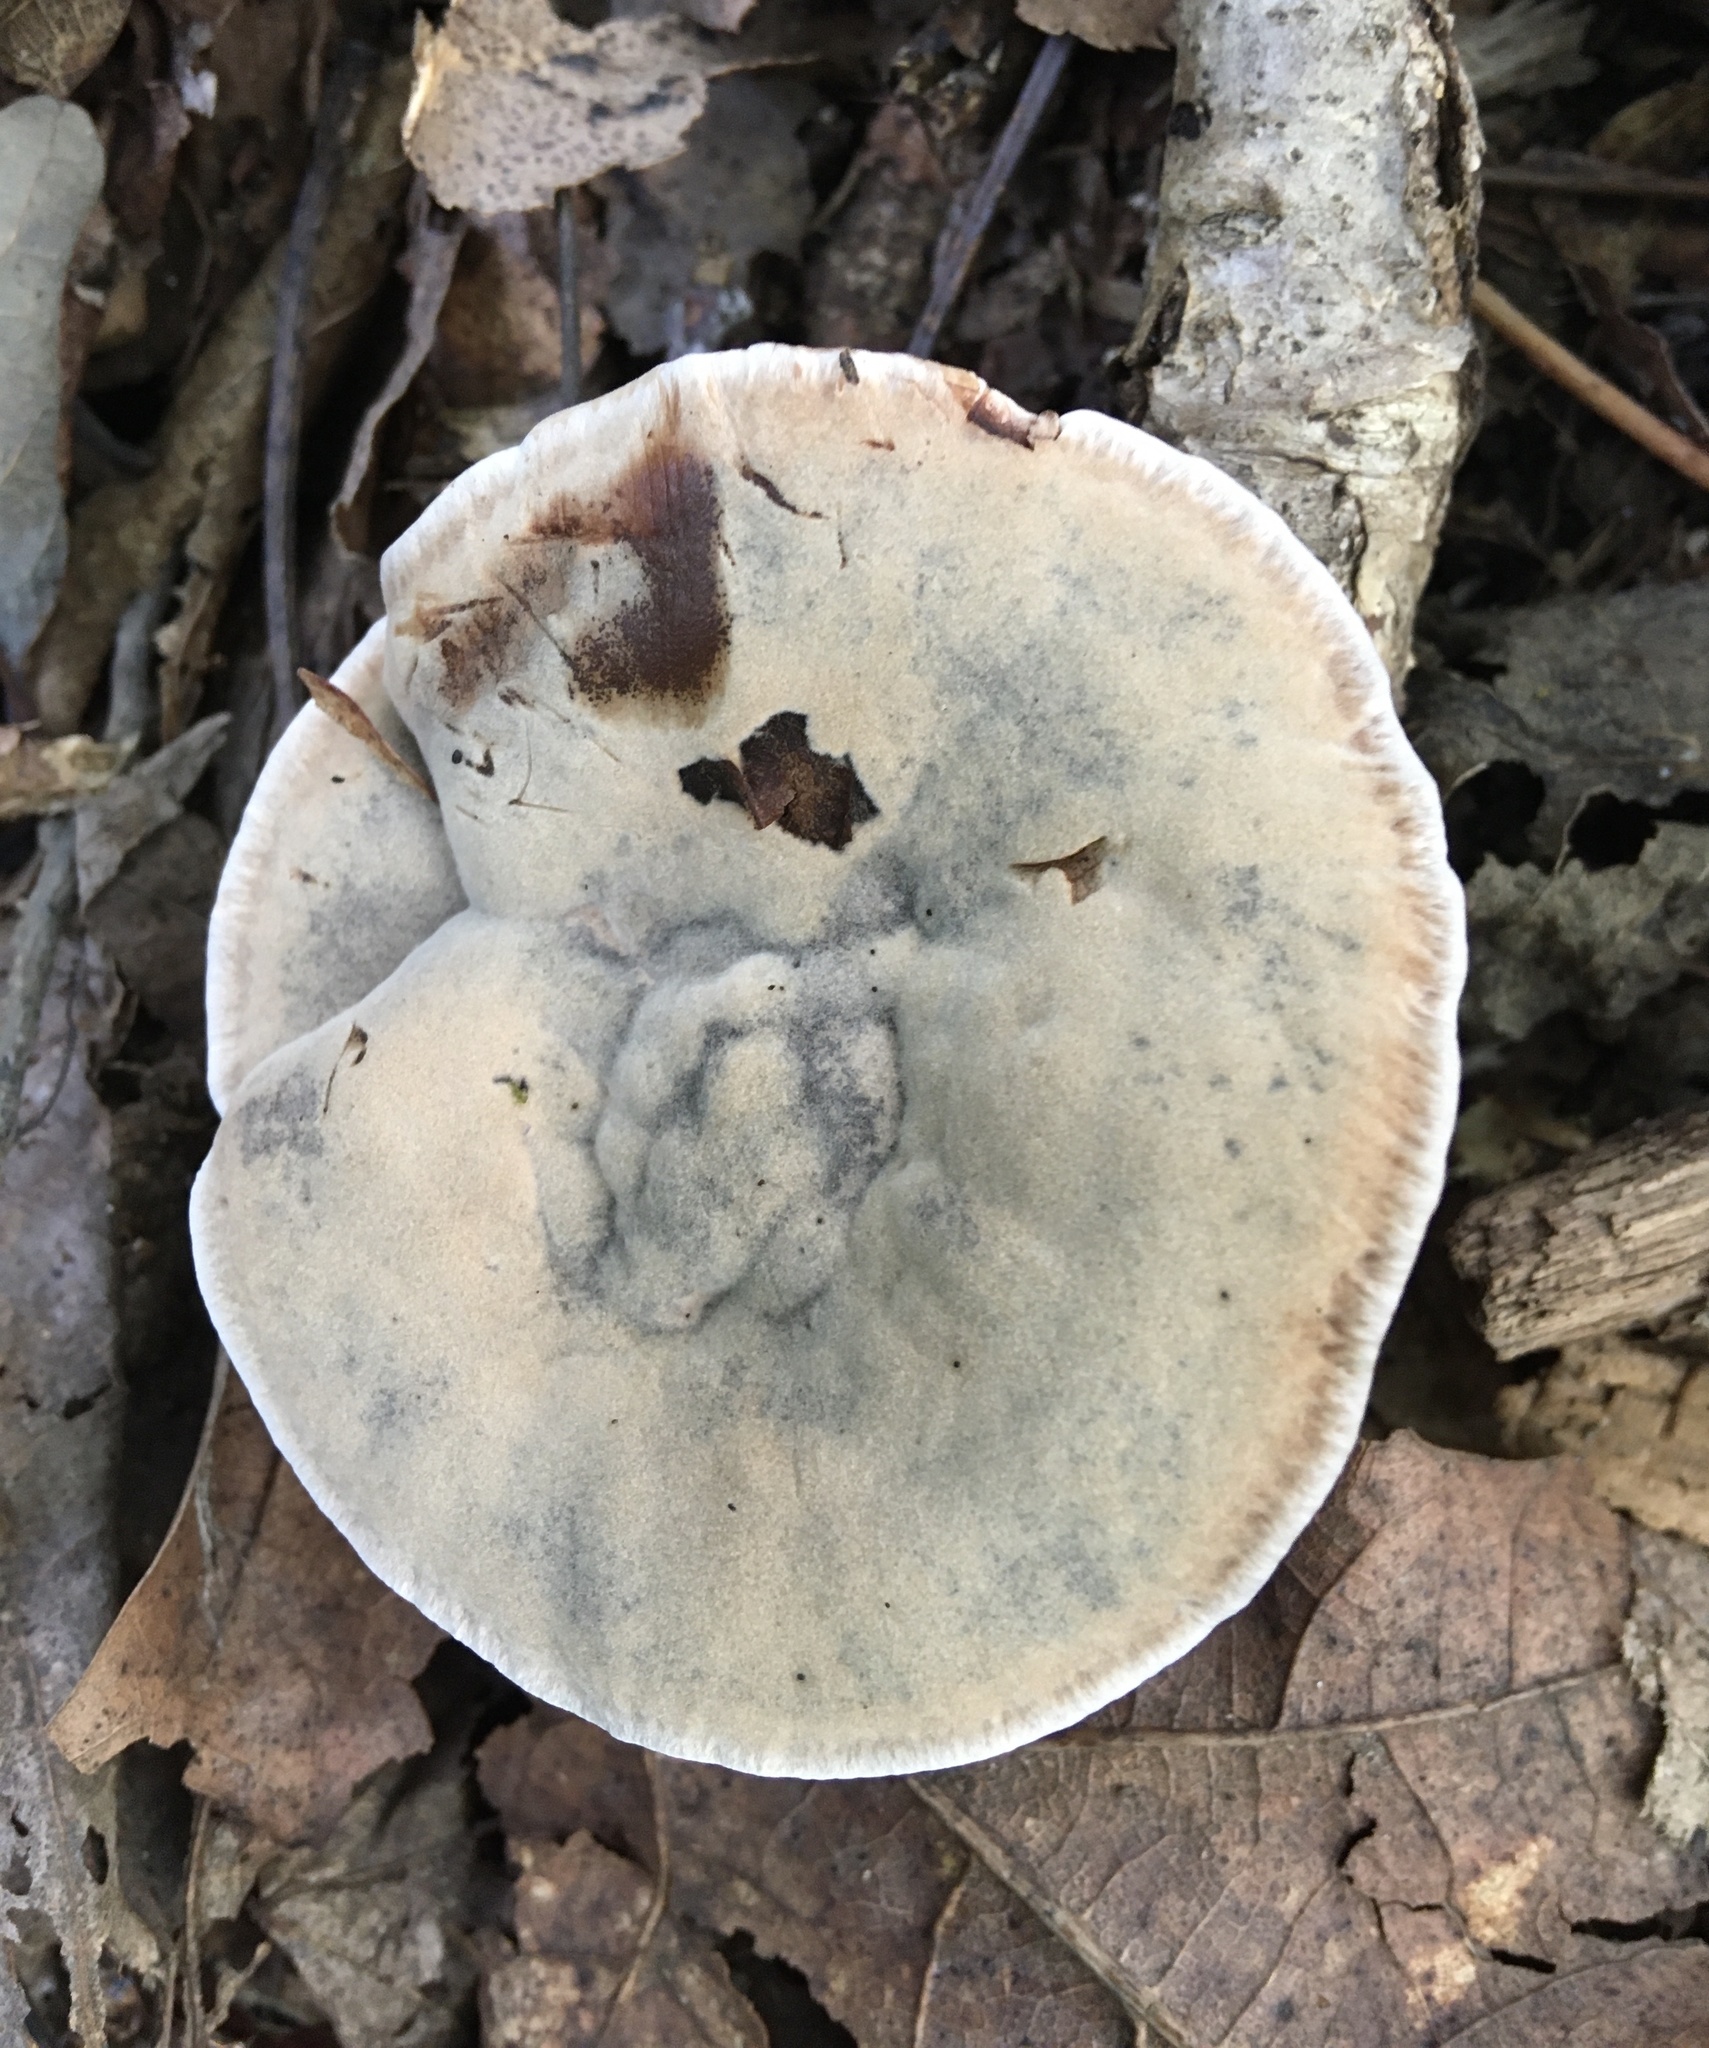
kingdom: Fungi
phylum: Basidiomycota
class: Agaricomycetes
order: Thelephorales
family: Bankeraceae
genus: Hydnellum
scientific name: Hydnellum spongiosipes
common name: Velvet tooth
